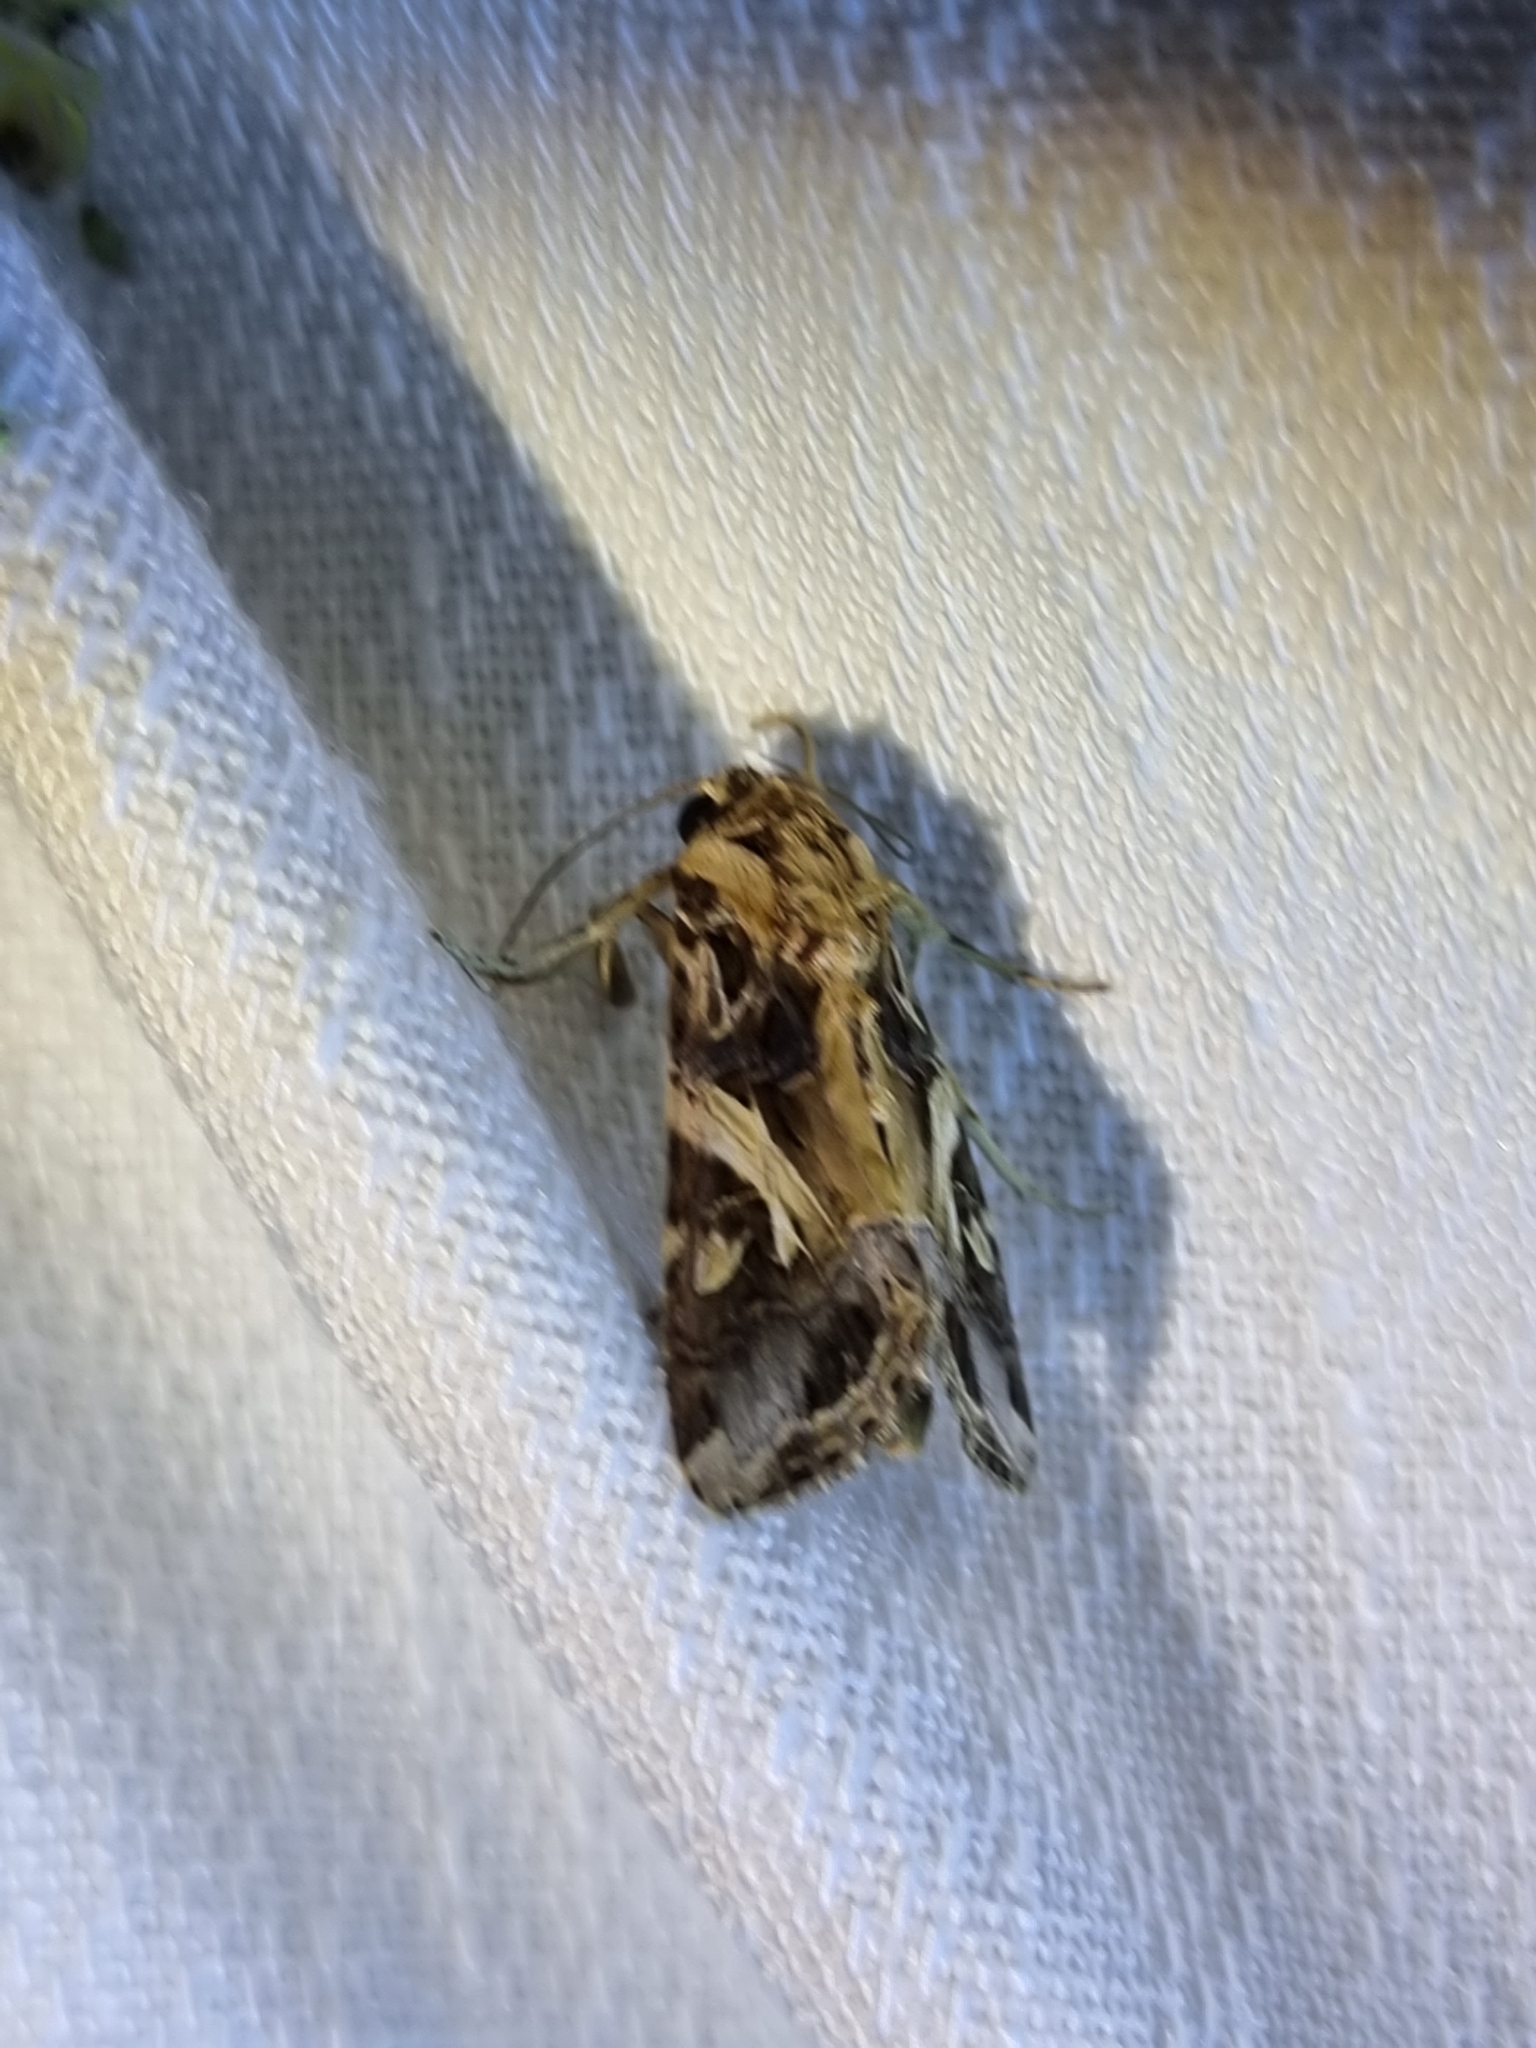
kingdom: Animalia
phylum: Arthropoda
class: Insecta
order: Lepidoptera
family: Noctuidae
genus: Spodoptera
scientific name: Spodoptera litura
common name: Asian cotton leafworm
